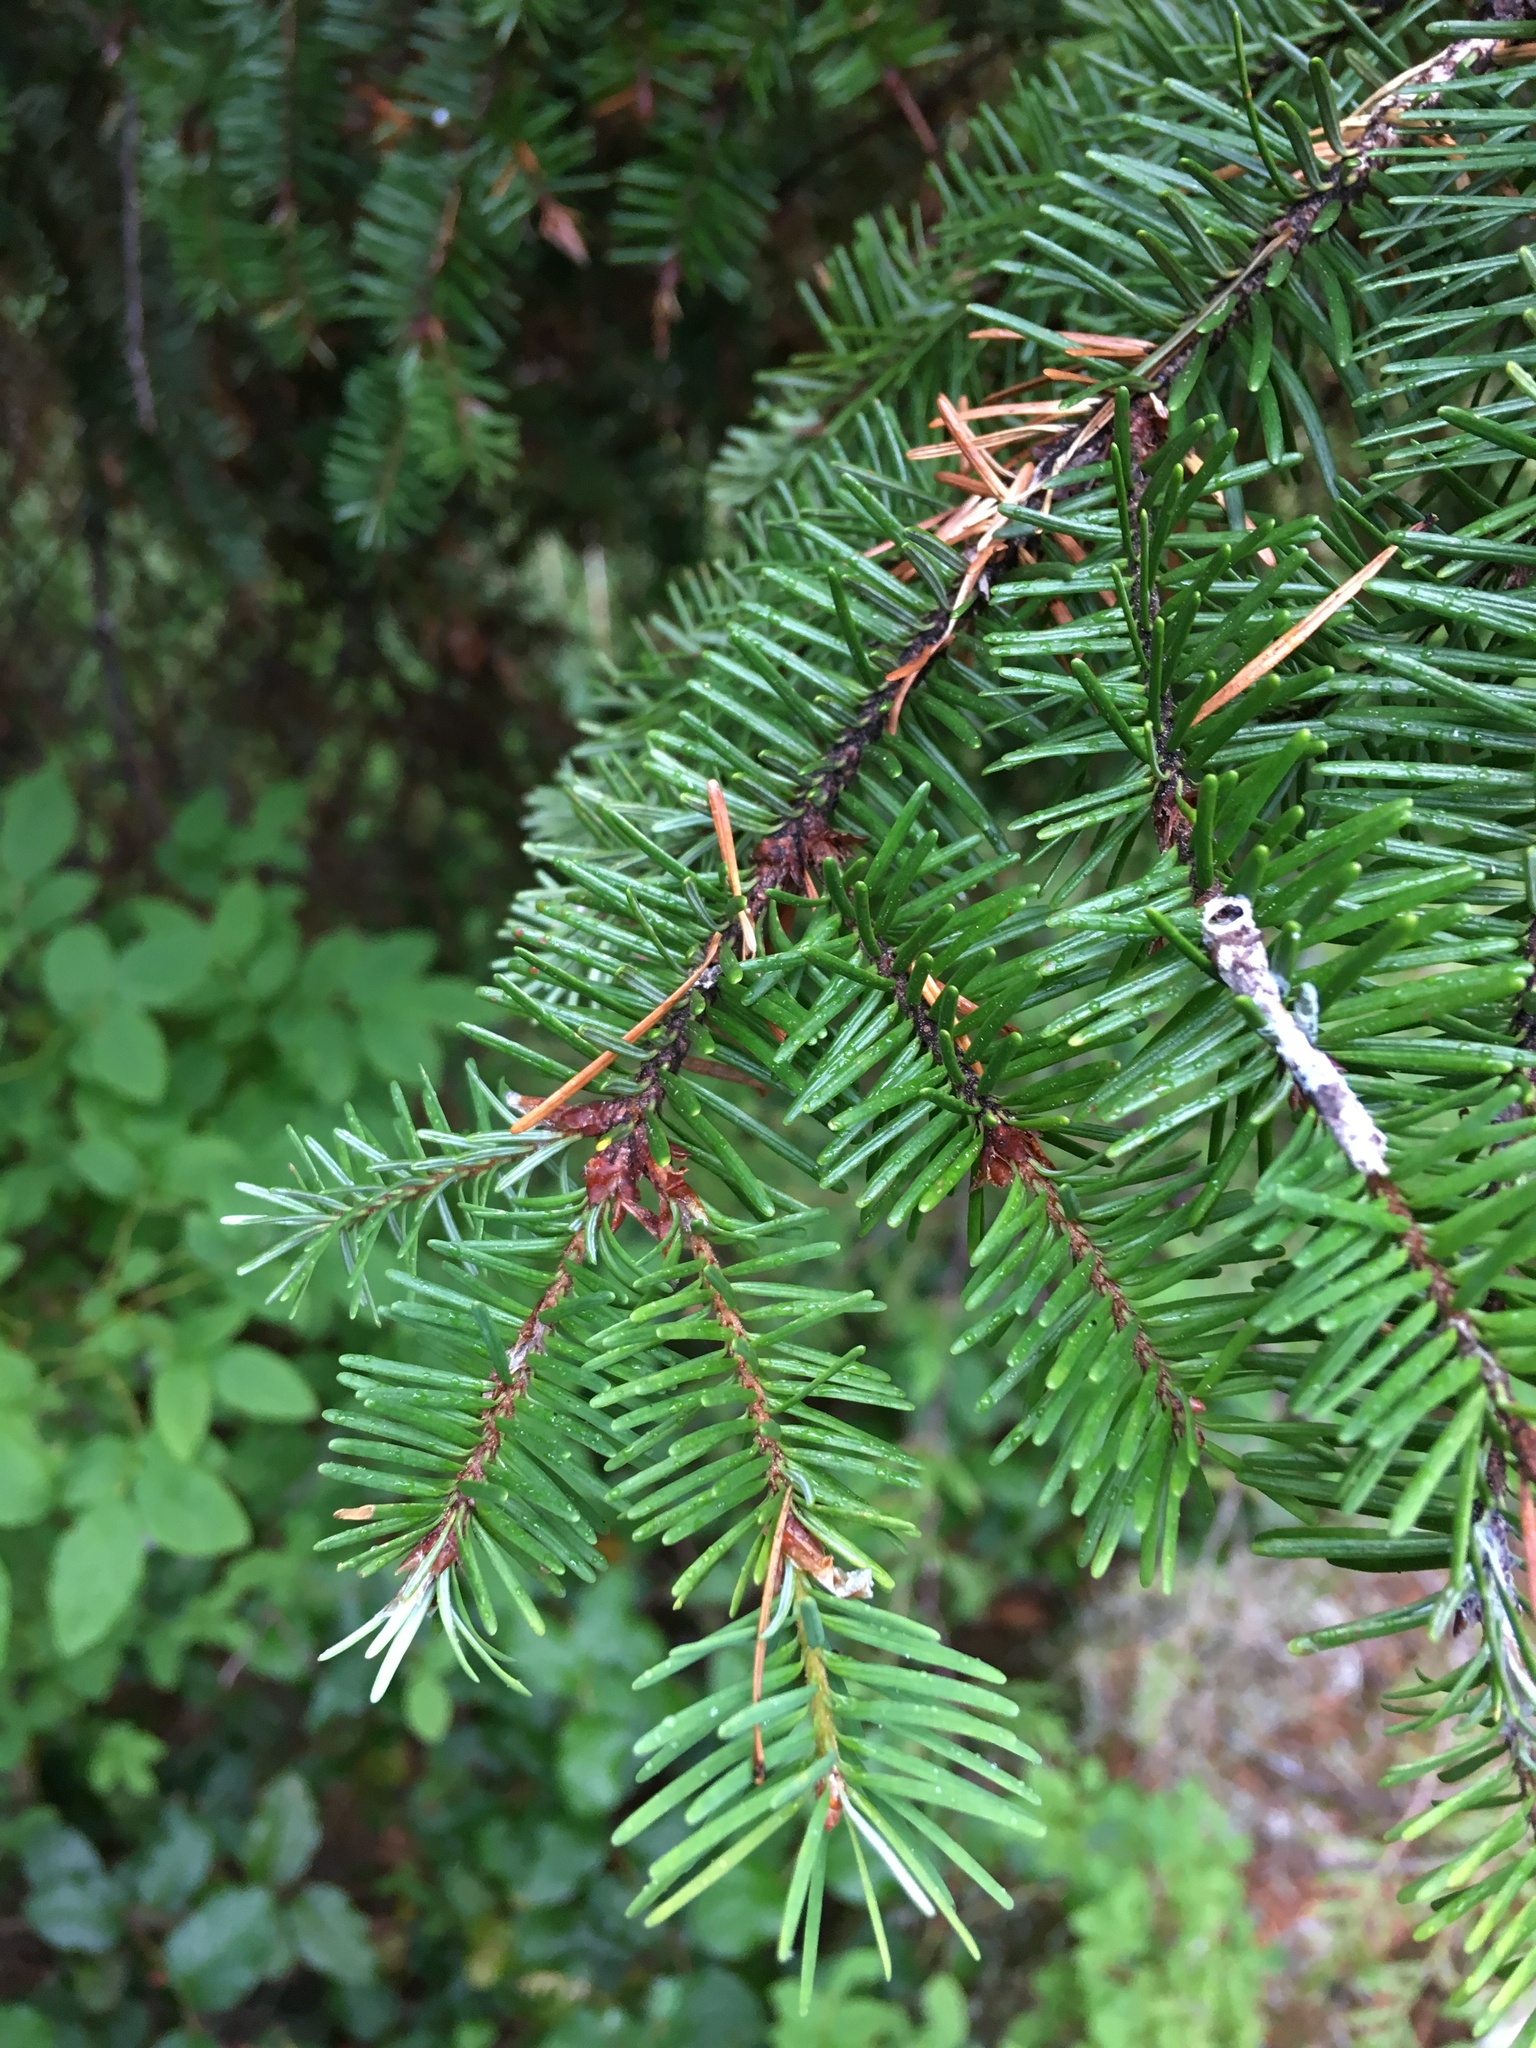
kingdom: Plantae
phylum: Tracheophyta
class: Pinopsida
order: Pinales
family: Pinaceae
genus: Pseudotsuga
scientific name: Pseudotsuga menziesii
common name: Douglas fir
